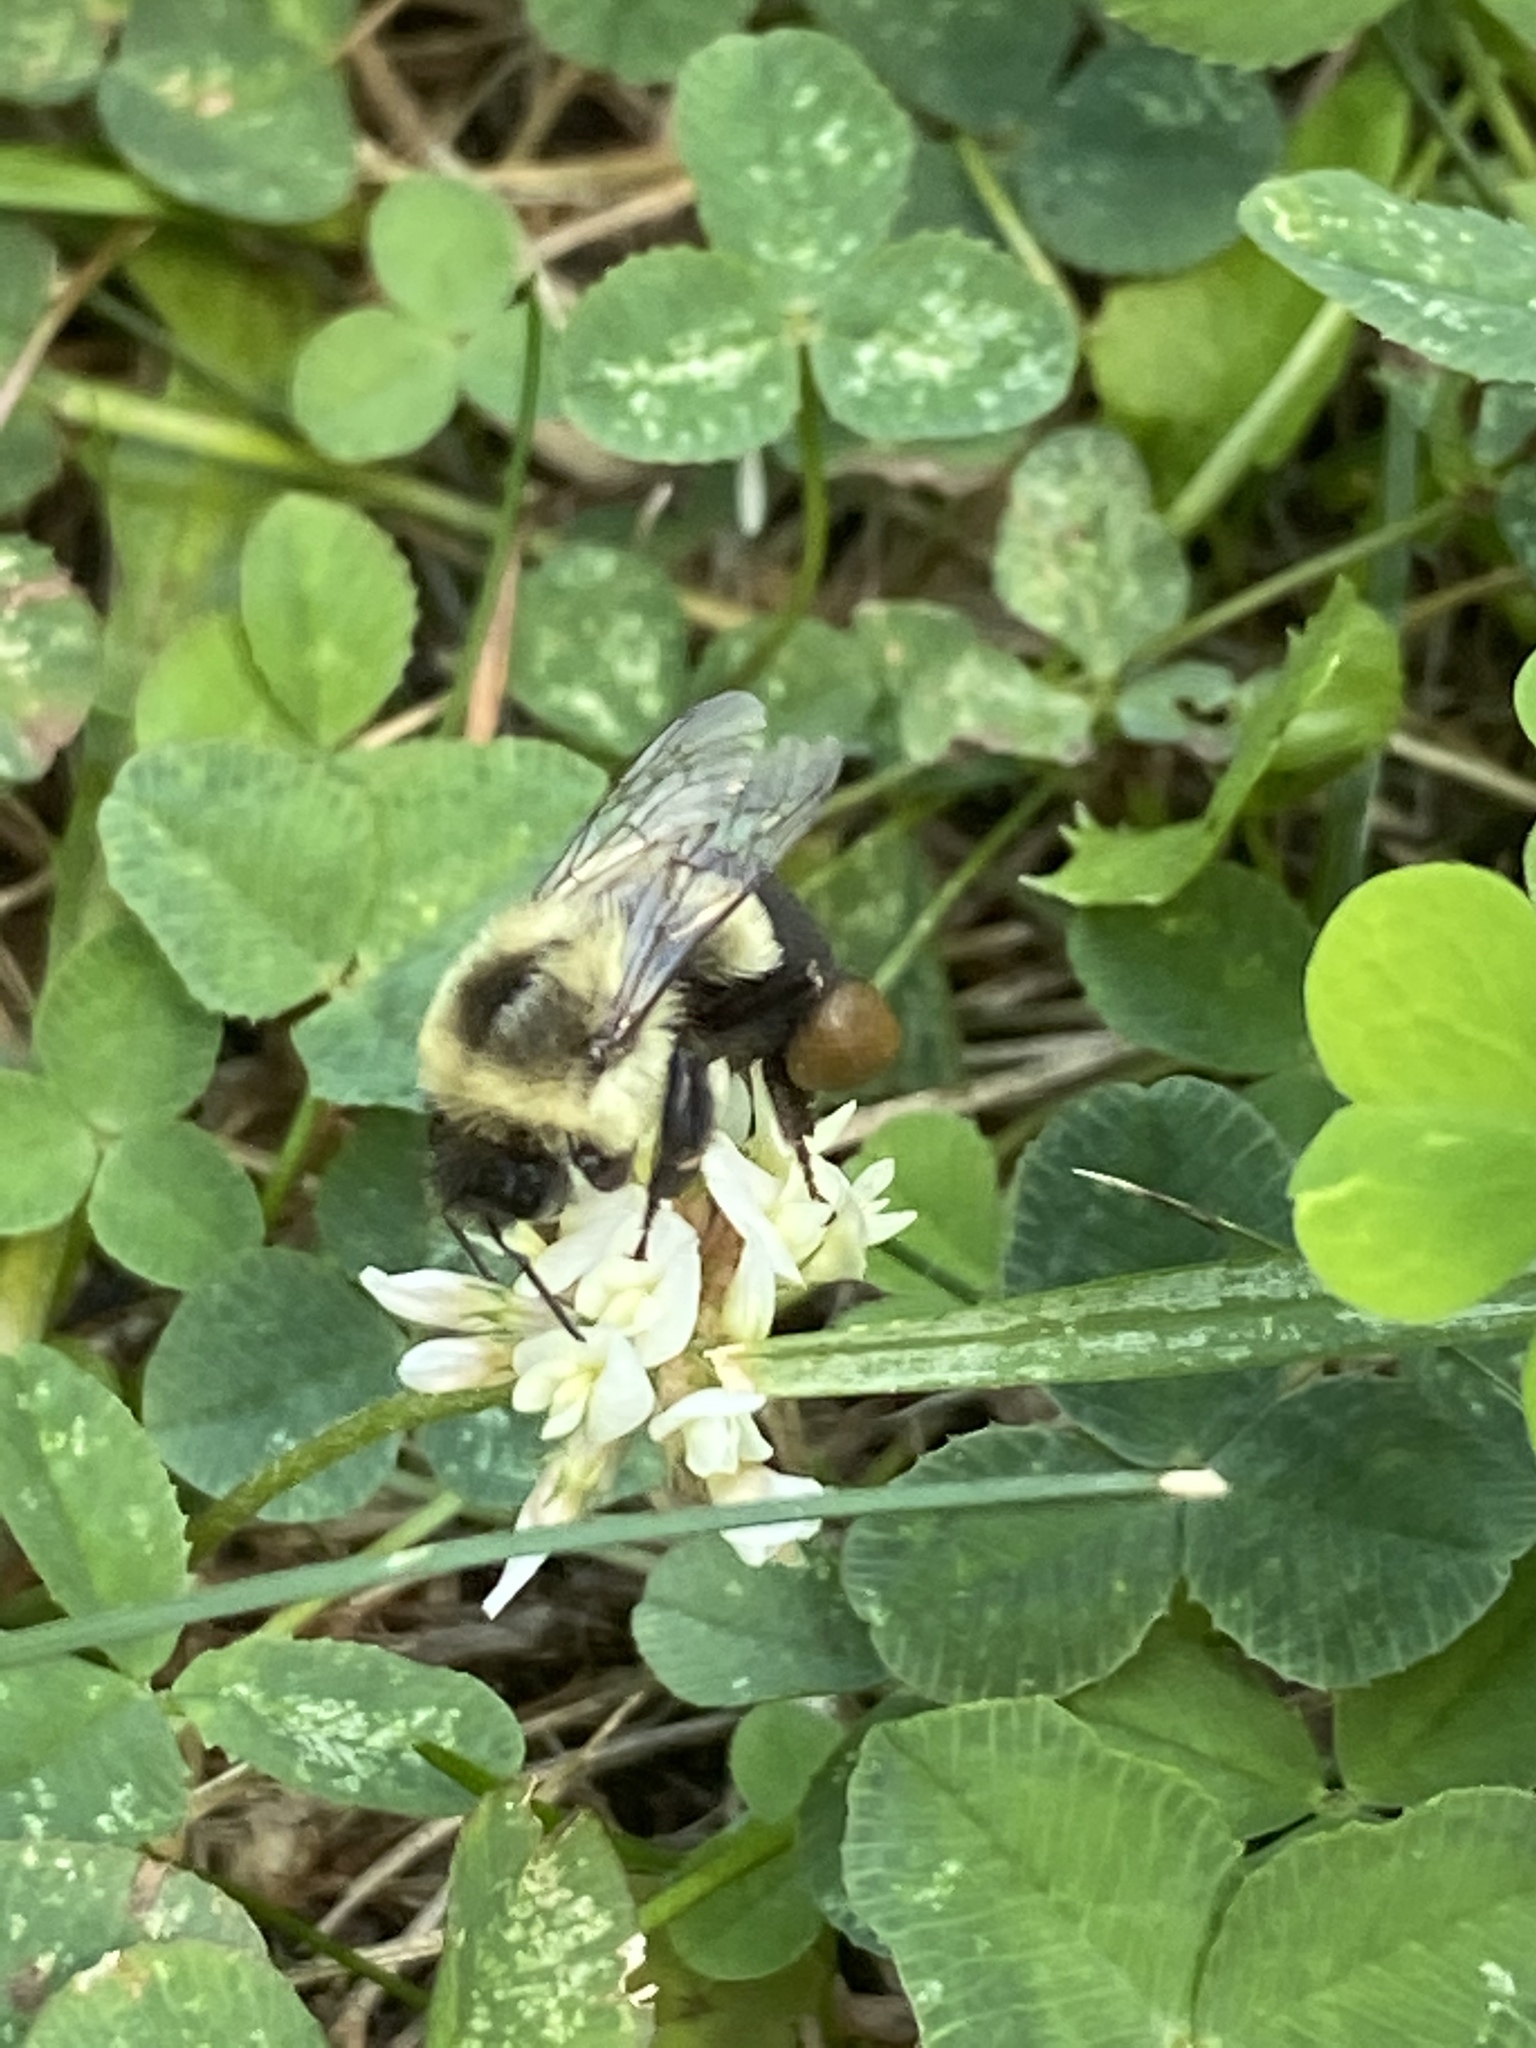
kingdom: Animalia
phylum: Arthropoda
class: Insecta
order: Hymenoptera
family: Apidae
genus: Bombus
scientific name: Bombus impatiens
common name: Common eastern bumble bee
